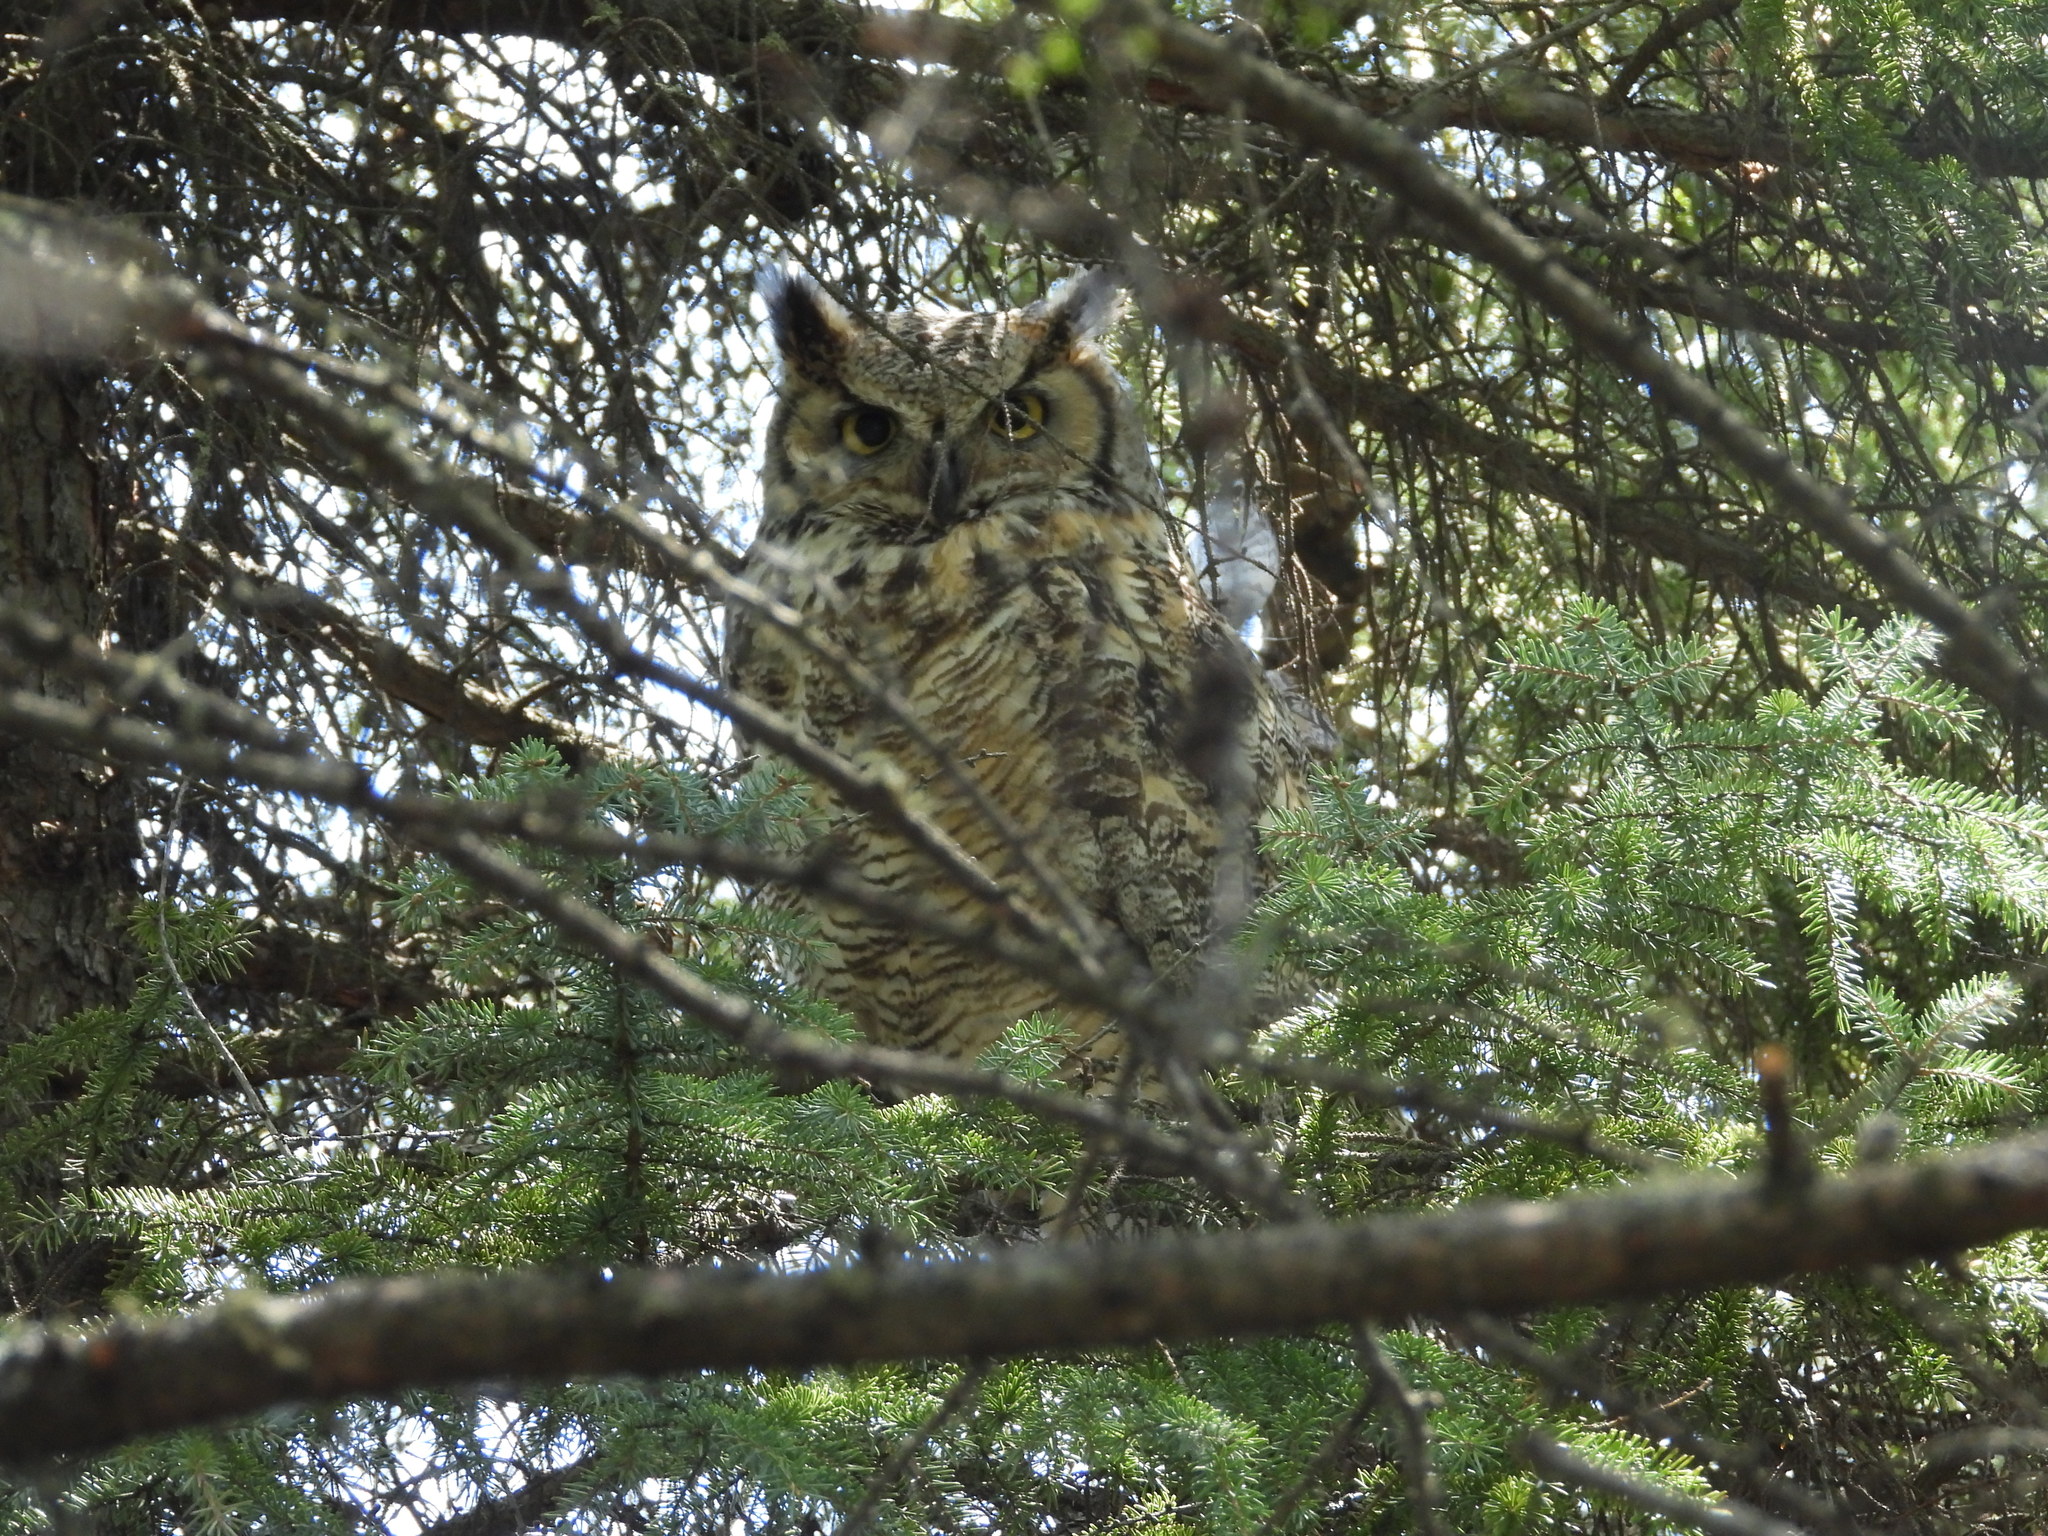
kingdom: Animalia
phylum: Chordata
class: Aves
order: Strigiformes
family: Strigidae
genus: Bubo
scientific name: Bubo virginianus
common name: Great horned owl
